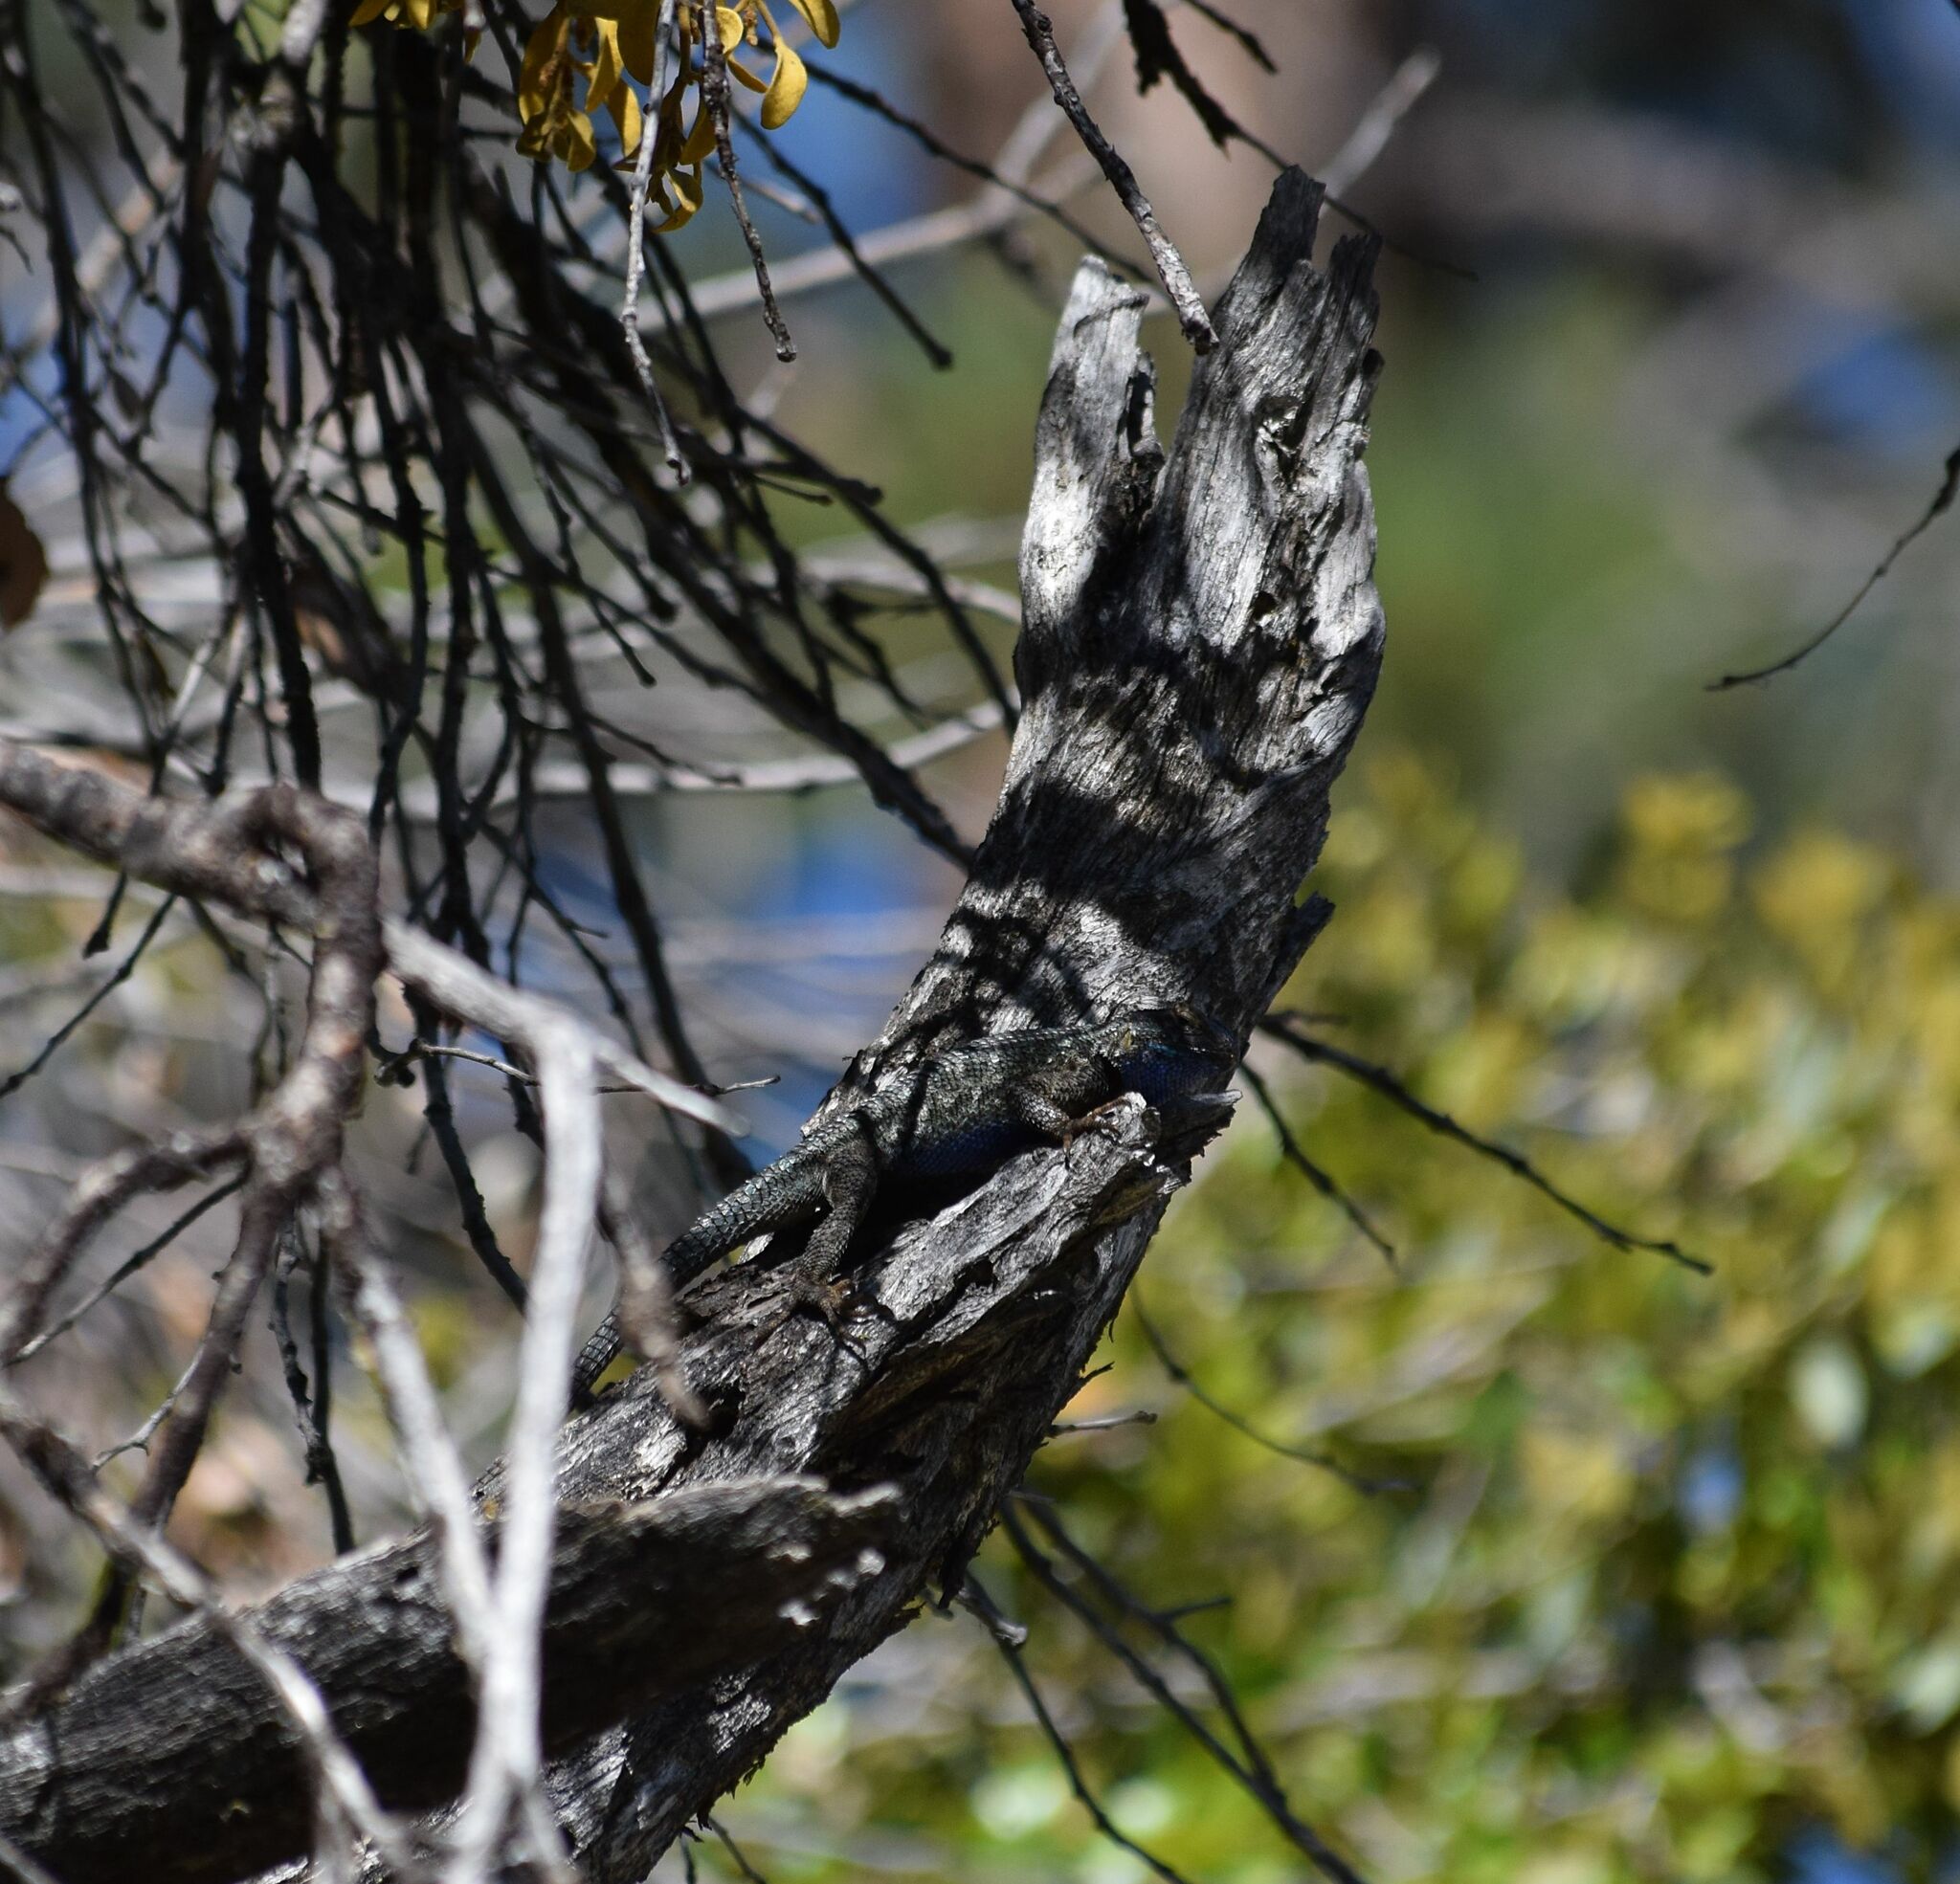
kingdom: Animalia
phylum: Chordata
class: Squamata
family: Phrynosomatidae
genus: Sceloporus
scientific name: Sceloporus occidentalis
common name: Western fence lizard
